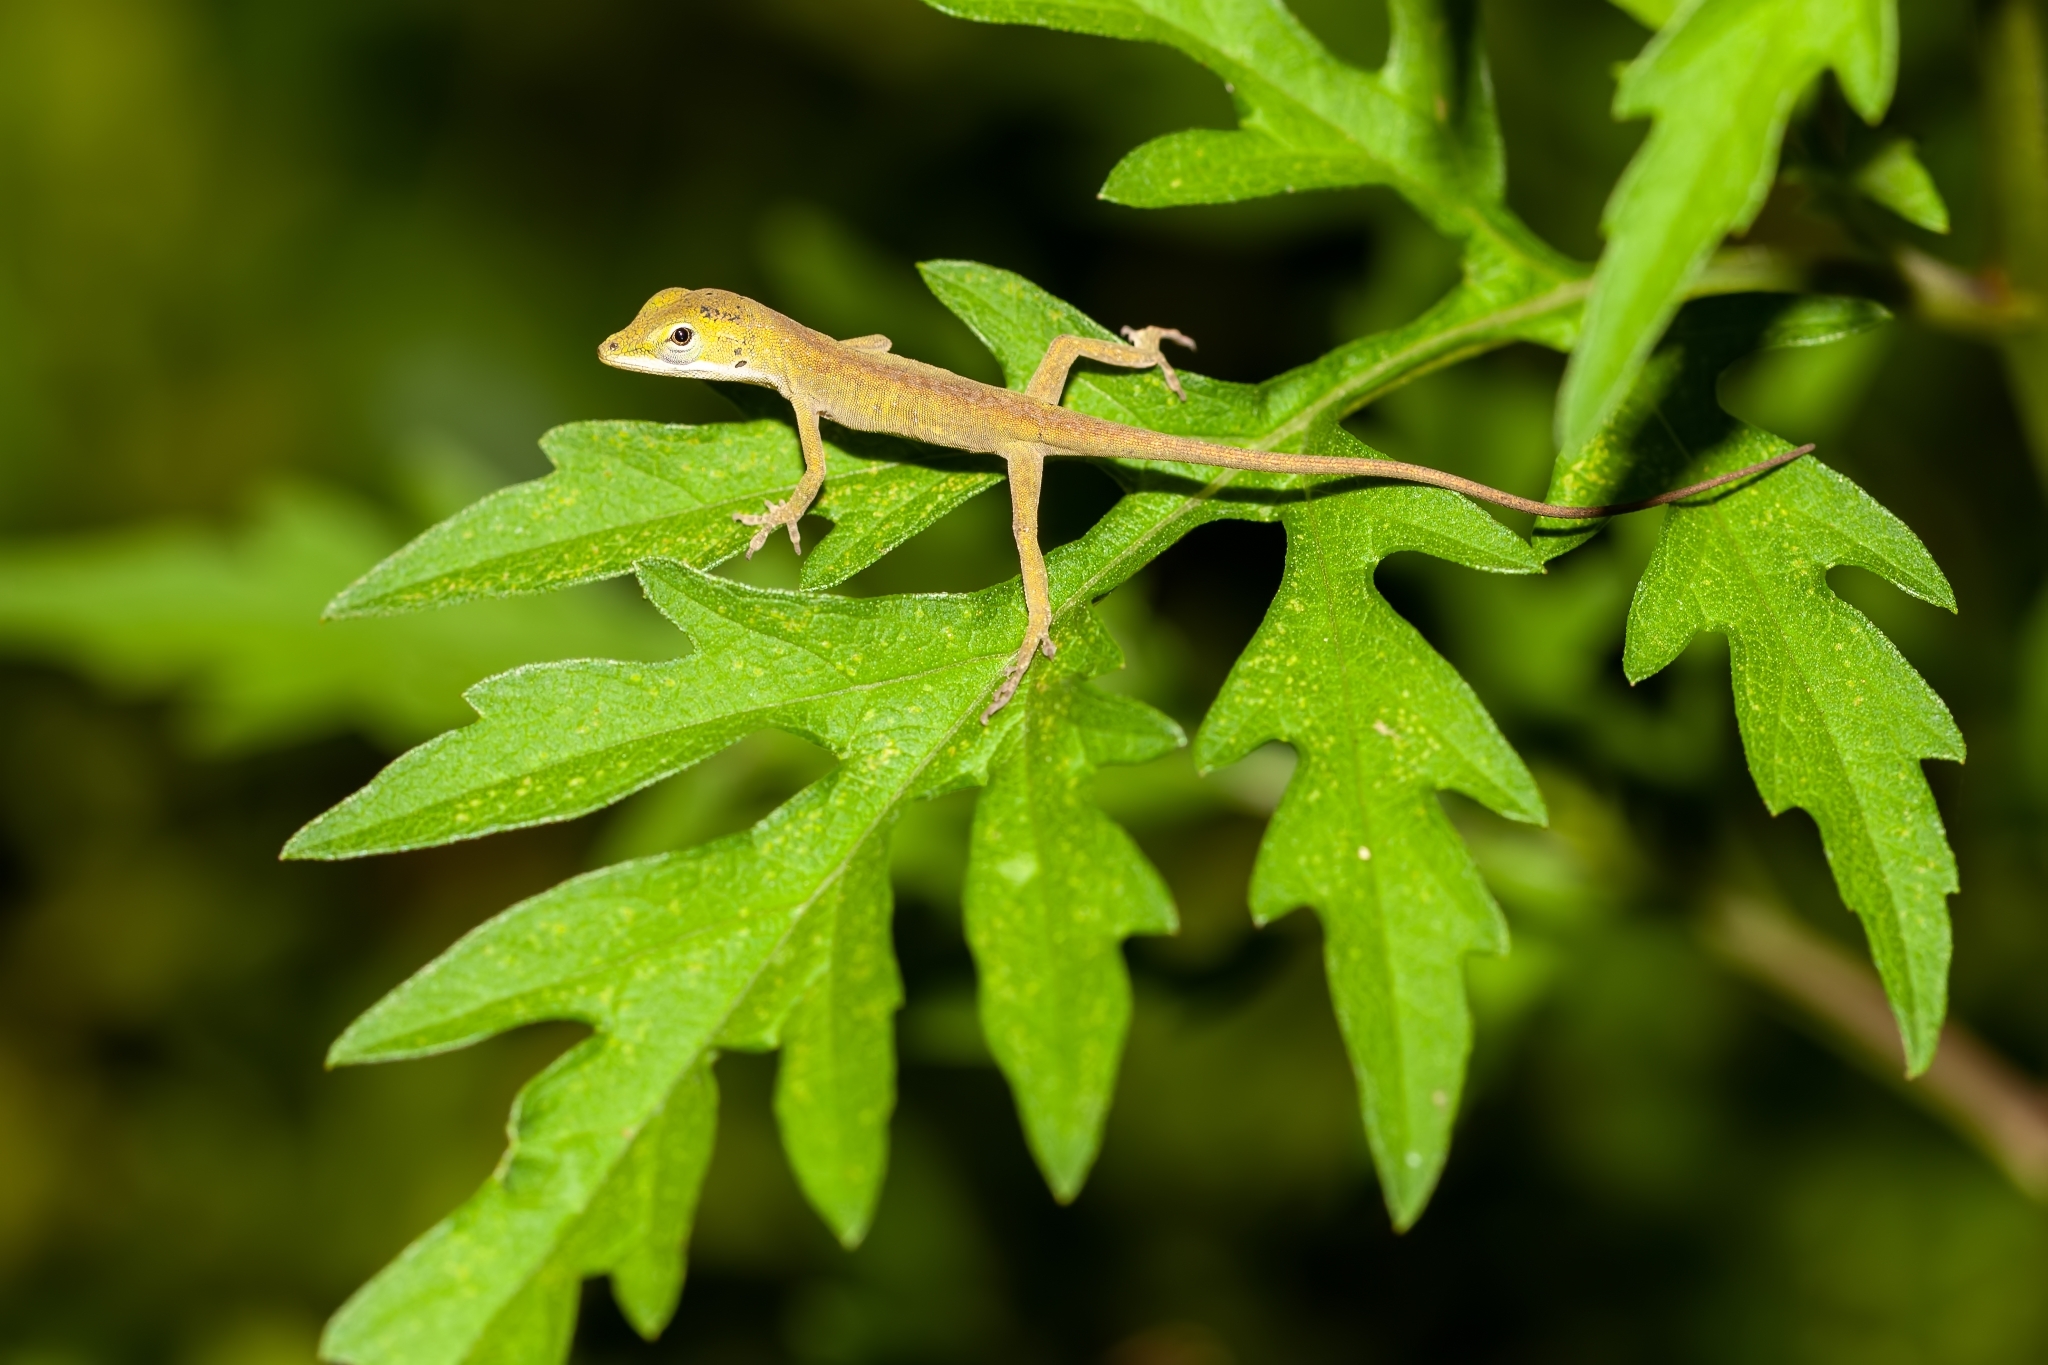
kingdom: Animalia
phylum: Chordata
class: Squamata
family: Dactyloidae
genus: Anolis
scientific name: Anolis carolinensis
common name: Green anole
